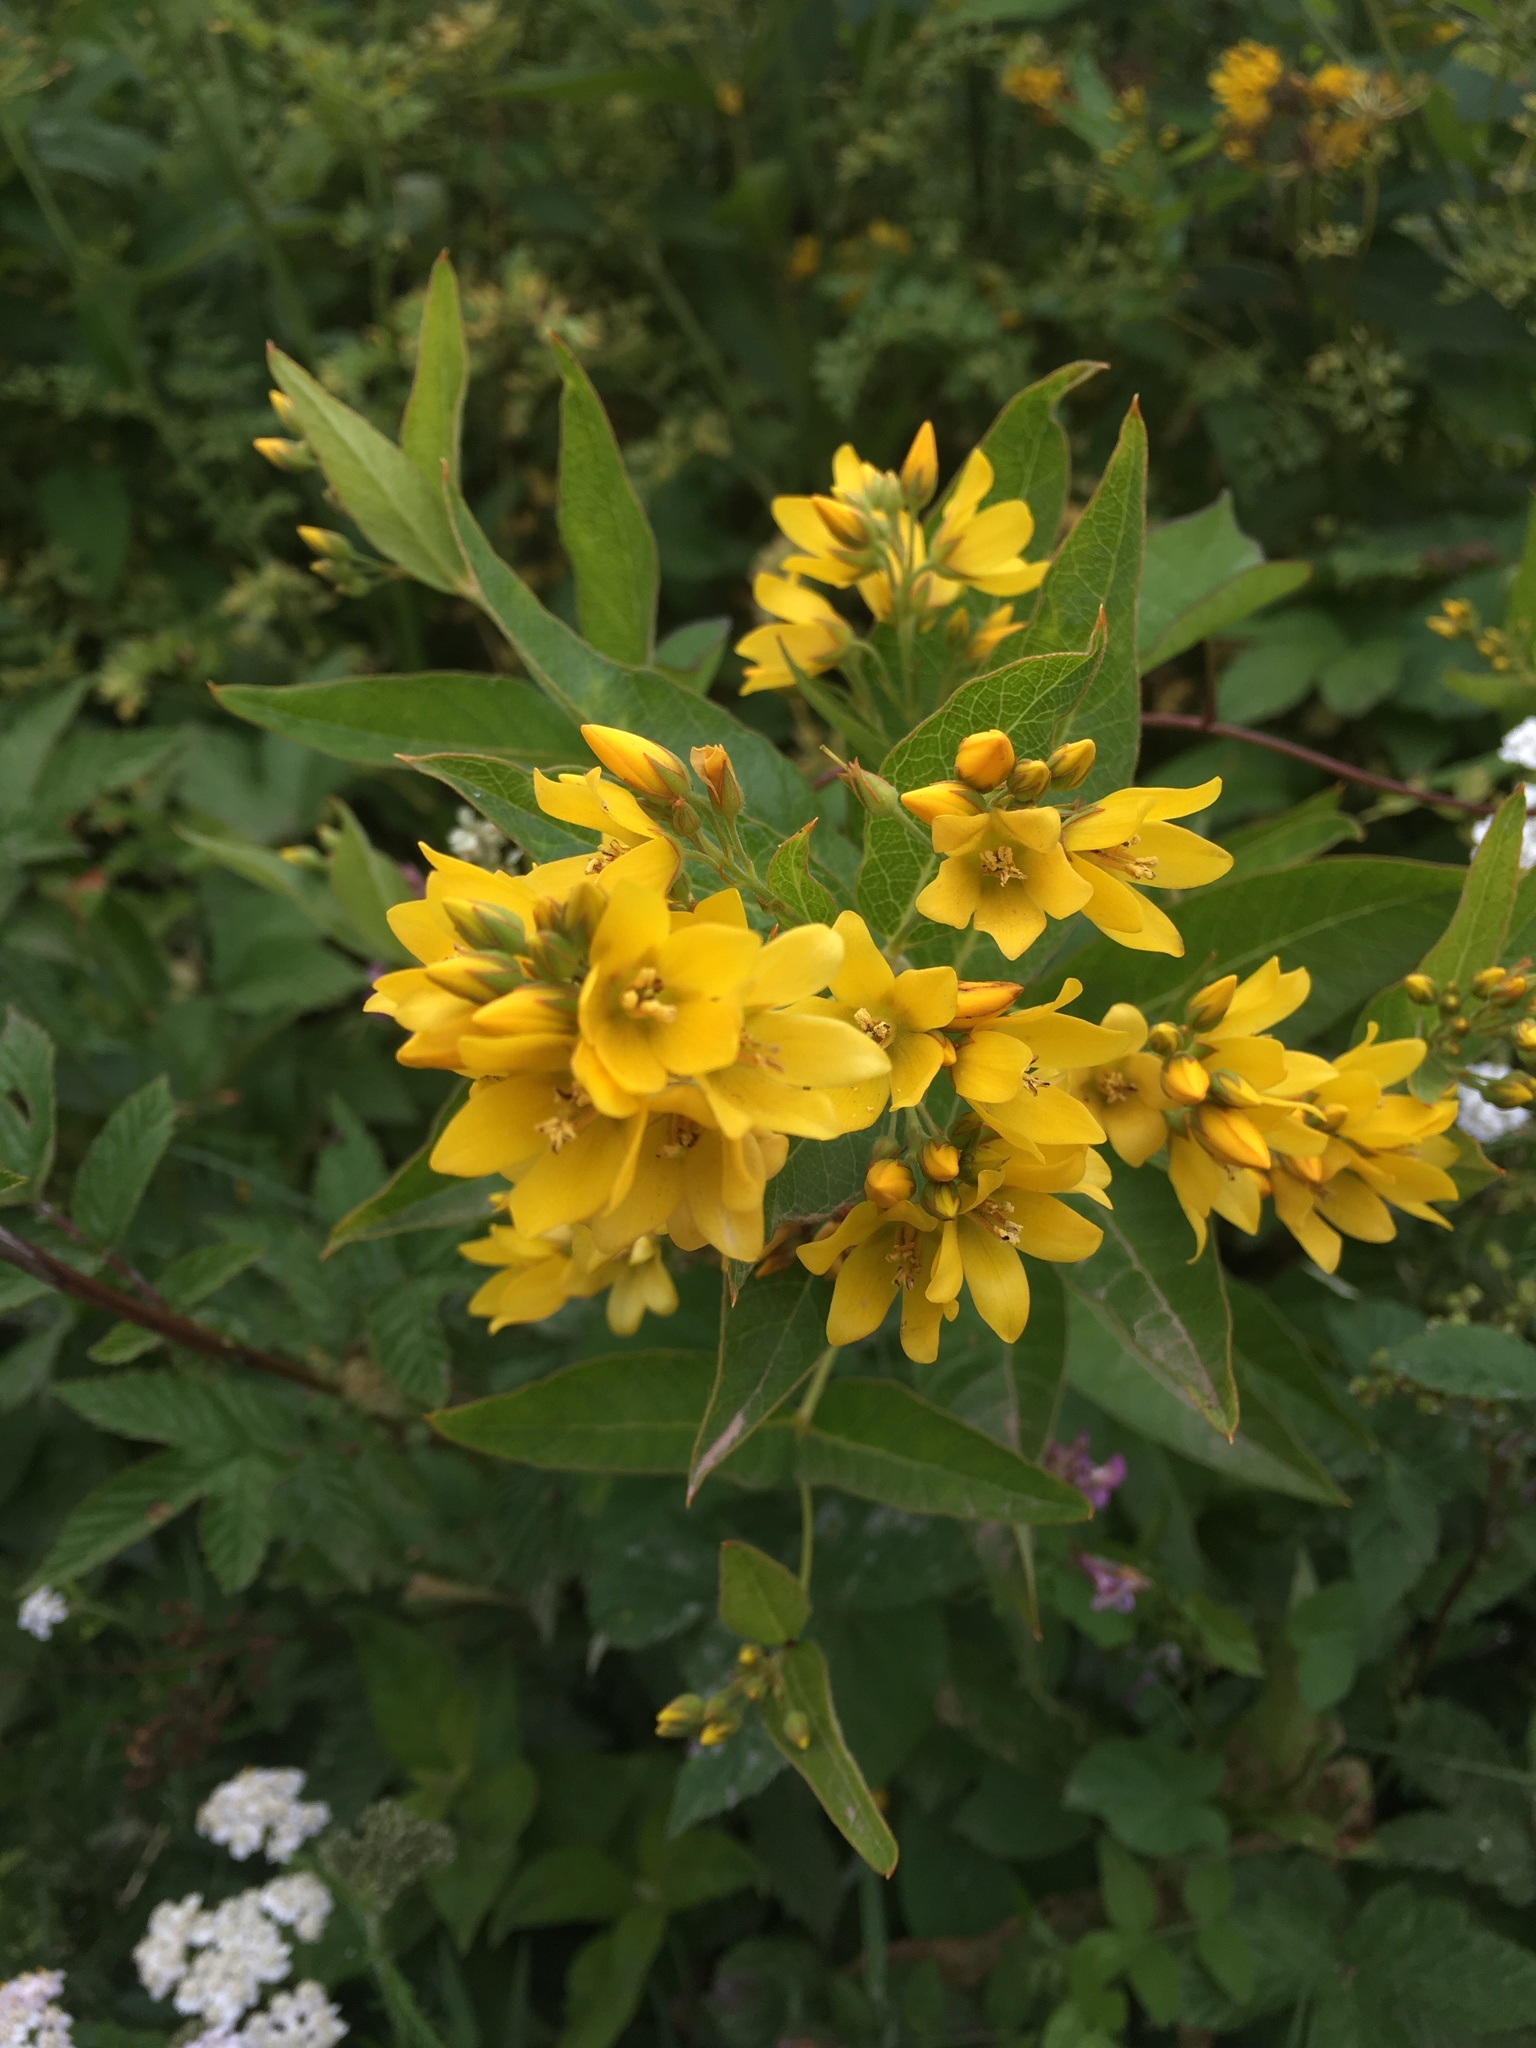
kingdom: Plantae
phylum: Tracheophyta
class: Magnoliopsida
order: Ericales
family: Primulaceae
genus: Lysimachia
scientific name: Lysimachia vulgaris
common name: Yellow loosestrife
